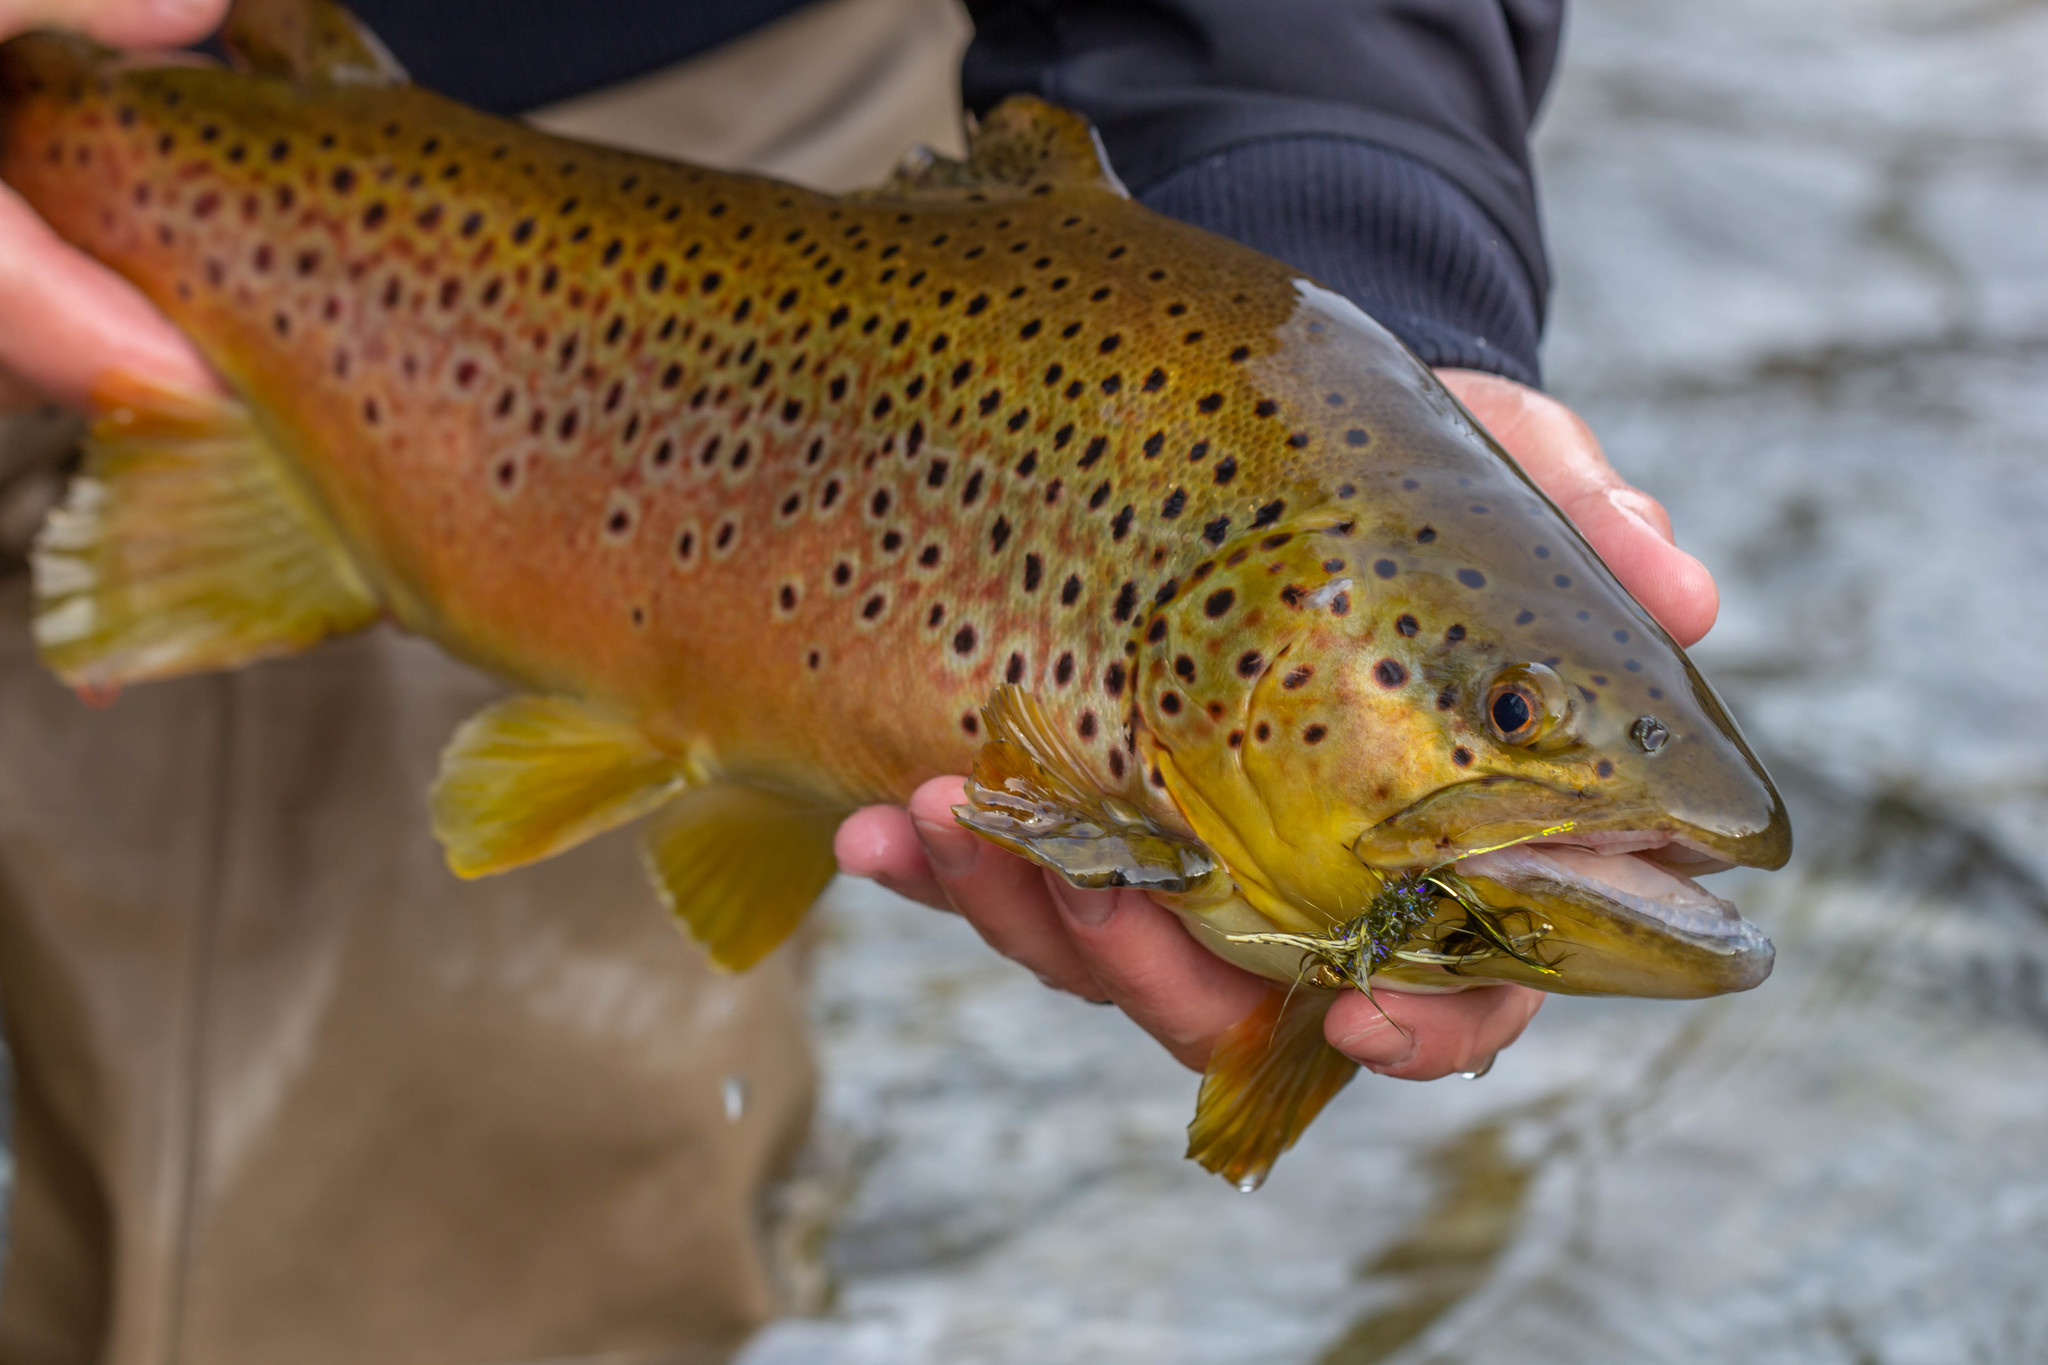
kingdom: Animalia
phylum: Chordata
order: Salmoniformes
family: Salmonidae
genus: Salmo
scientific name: Salmo trutta
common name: Brown trout
